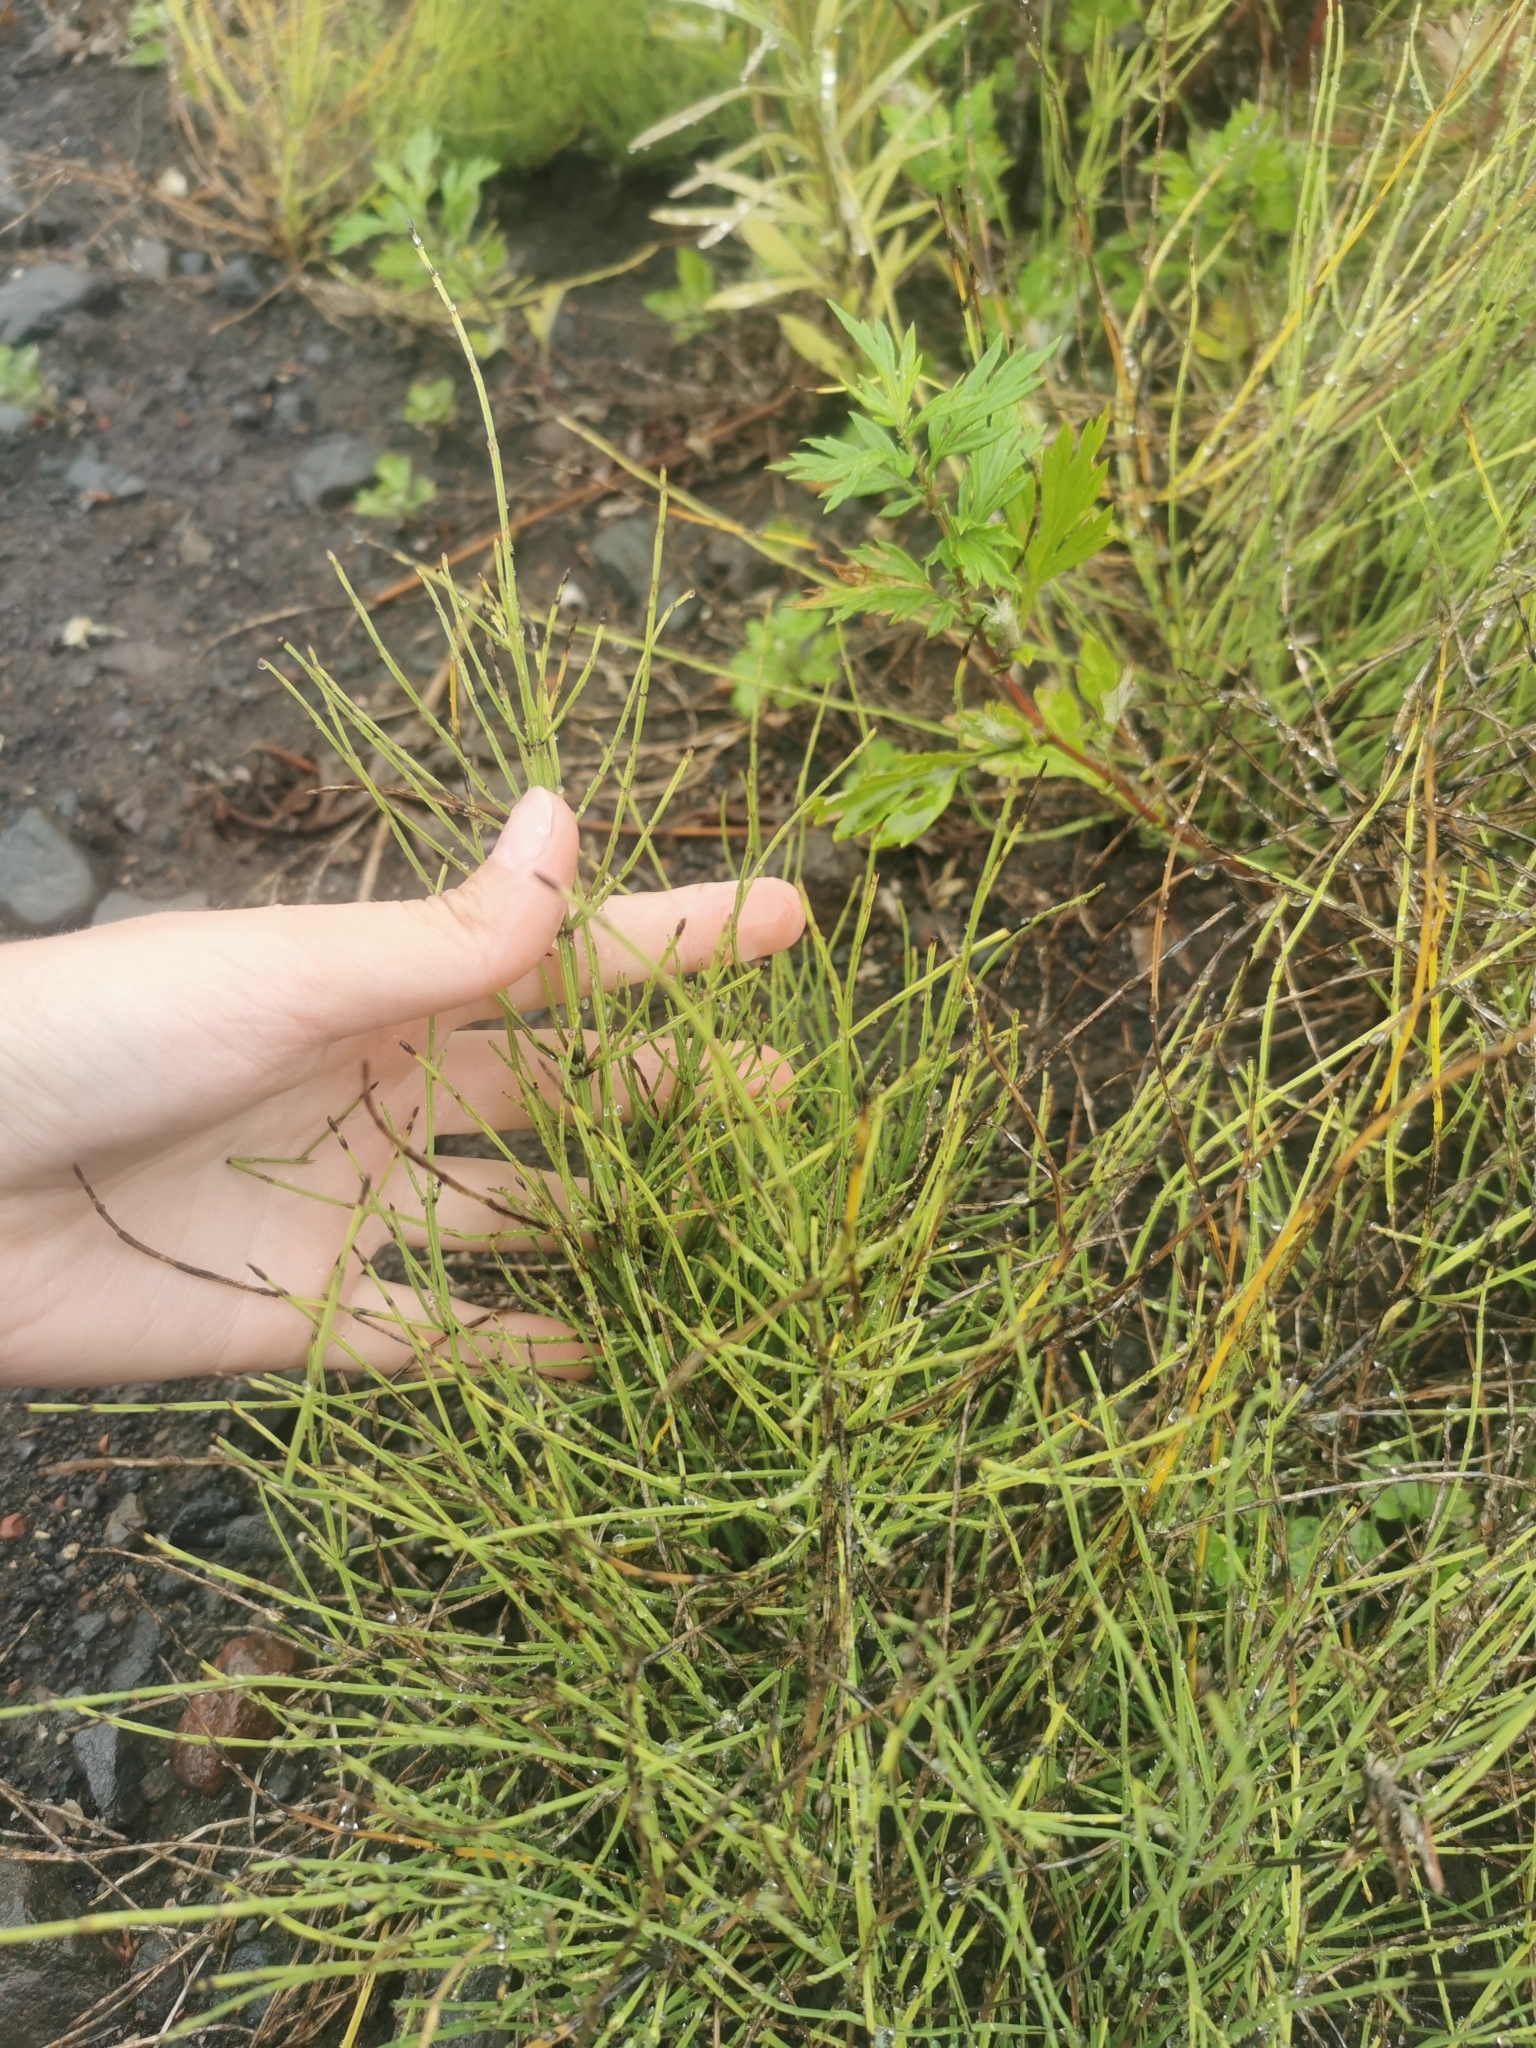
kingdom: Plantae
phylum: Tracheophyta
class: Polypodiopsida
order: Equisetales
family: Equisetaceae
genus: Equisetum
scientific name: Equisetum arvense
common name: Field horsetail
